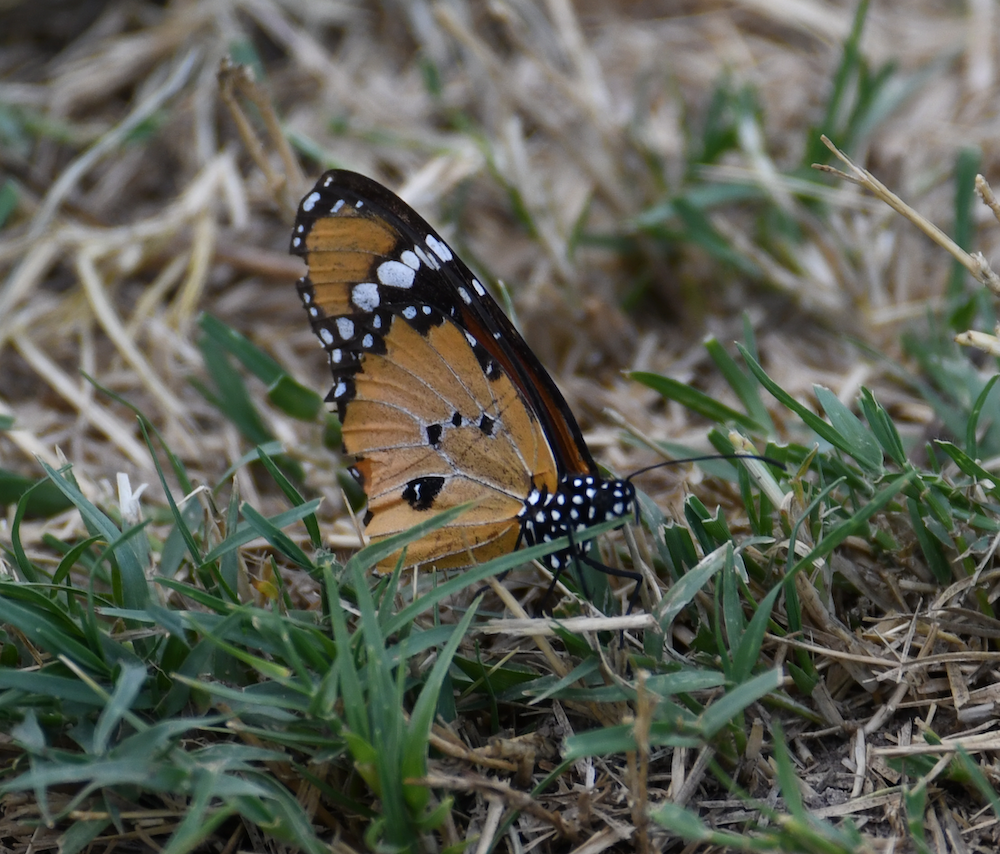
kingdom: Animalia
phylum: Arthropoda
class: Insecta
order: Lepidoptera
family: Nymphalidae
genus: Danaus
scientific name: Danaus chrysippus
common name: Plain tiger
